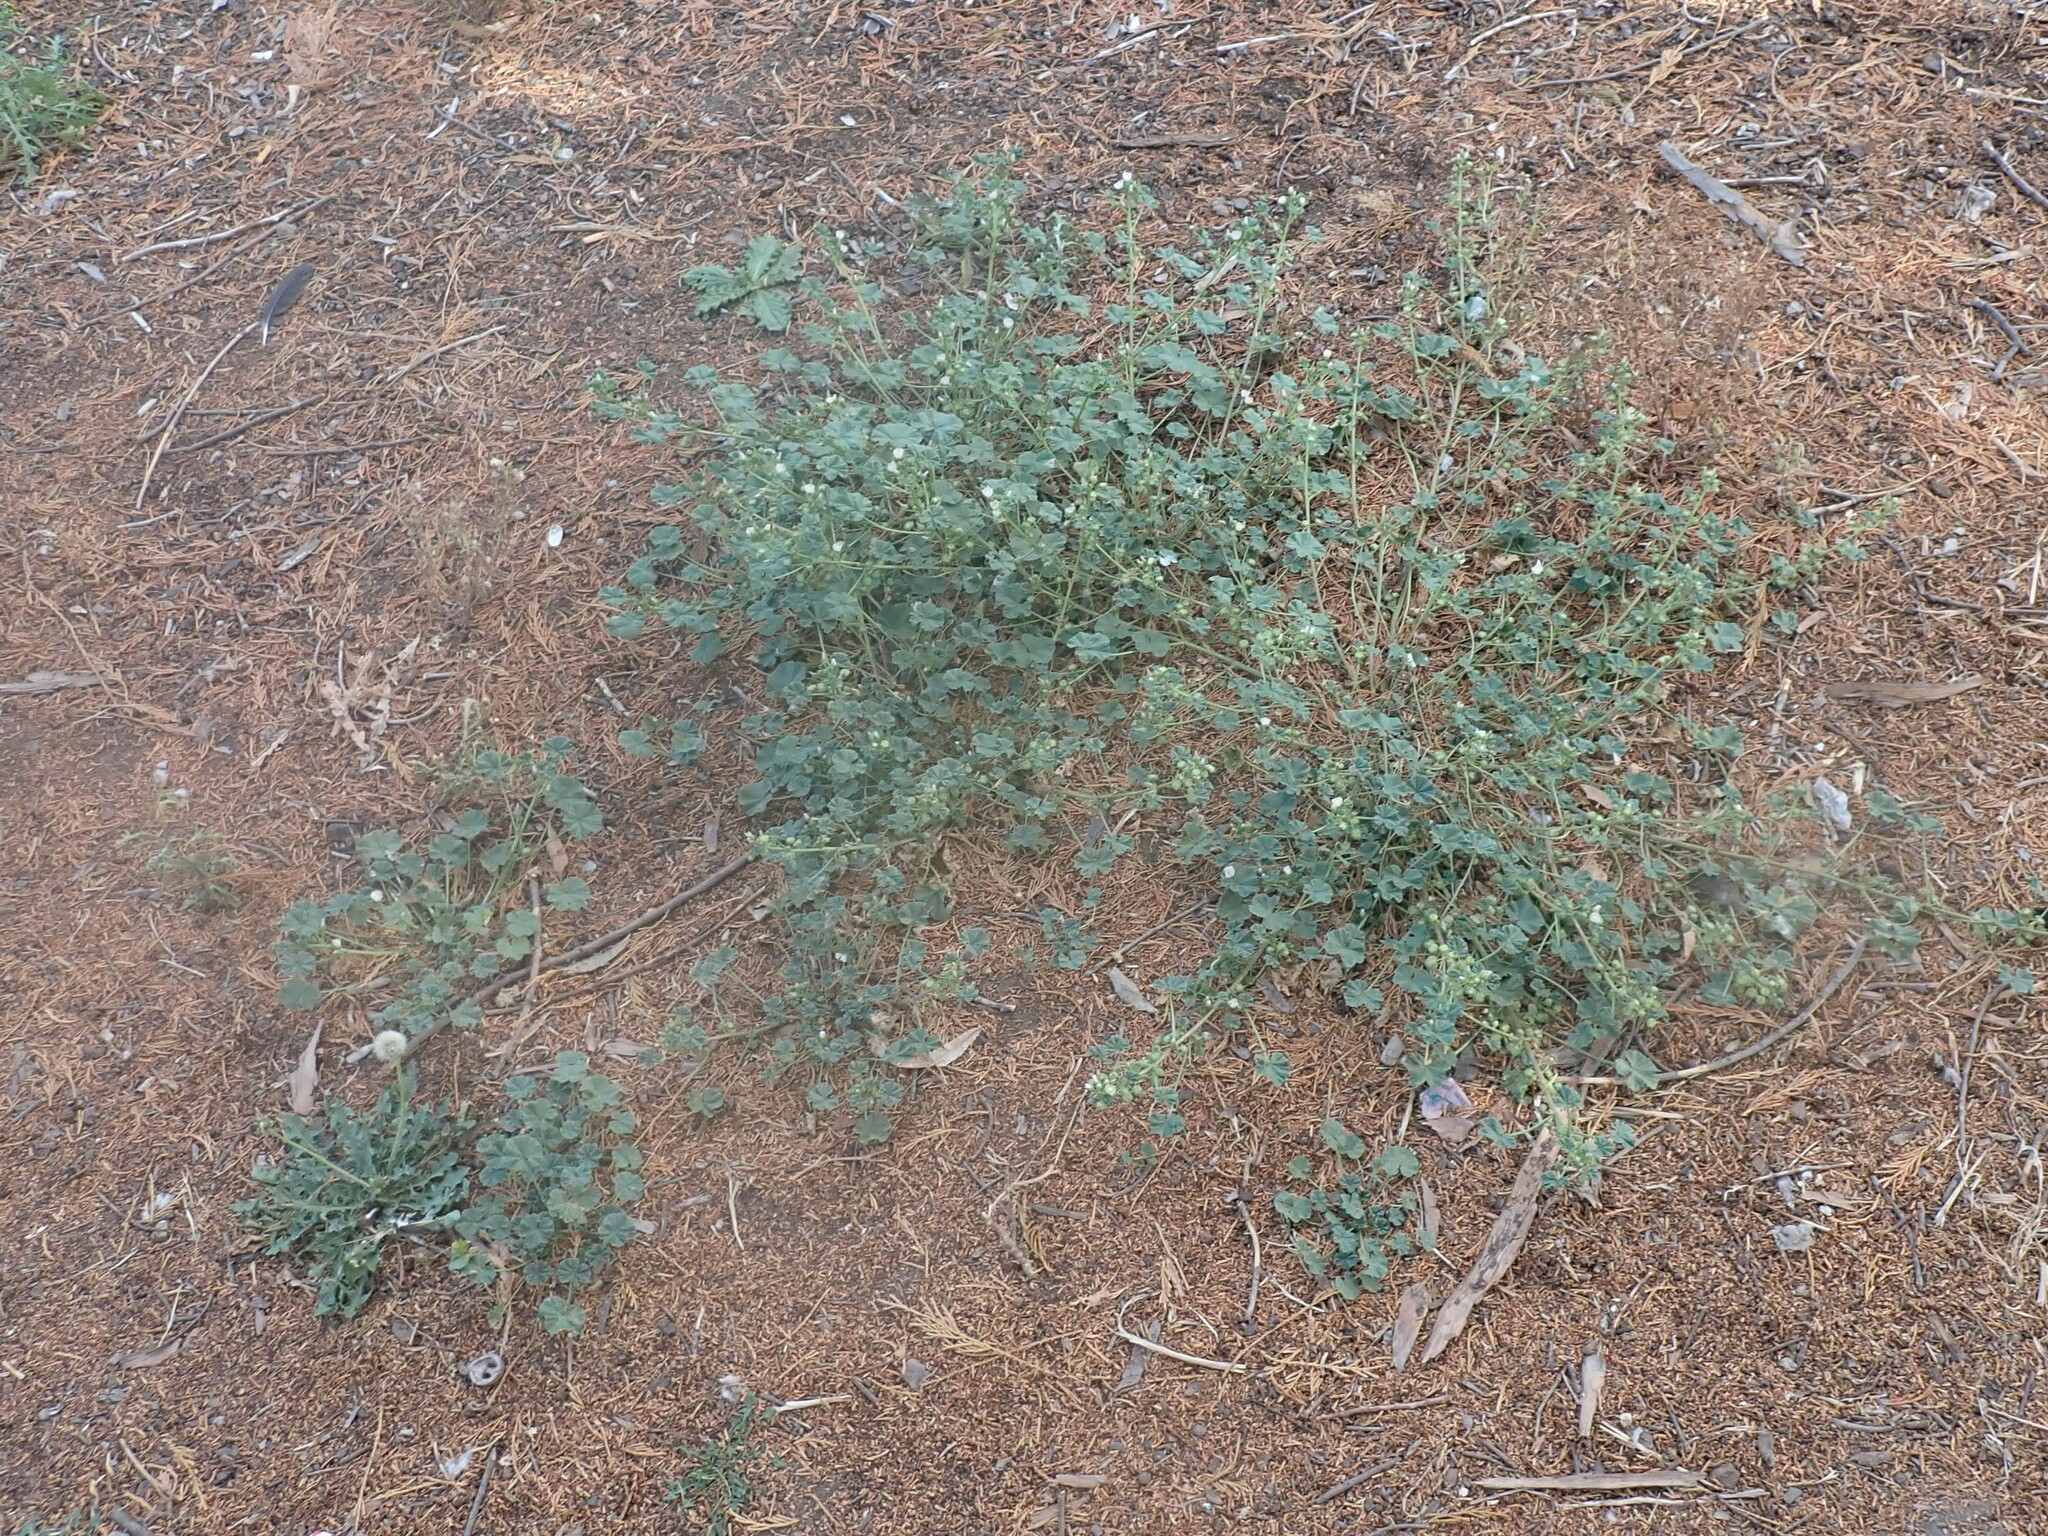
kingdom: Plantae
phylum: Tracheophyta
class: Magnoliopsida
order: Malvales
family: Malvaceae
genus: Malva
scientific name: Malva neglecta
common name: Common mallow
